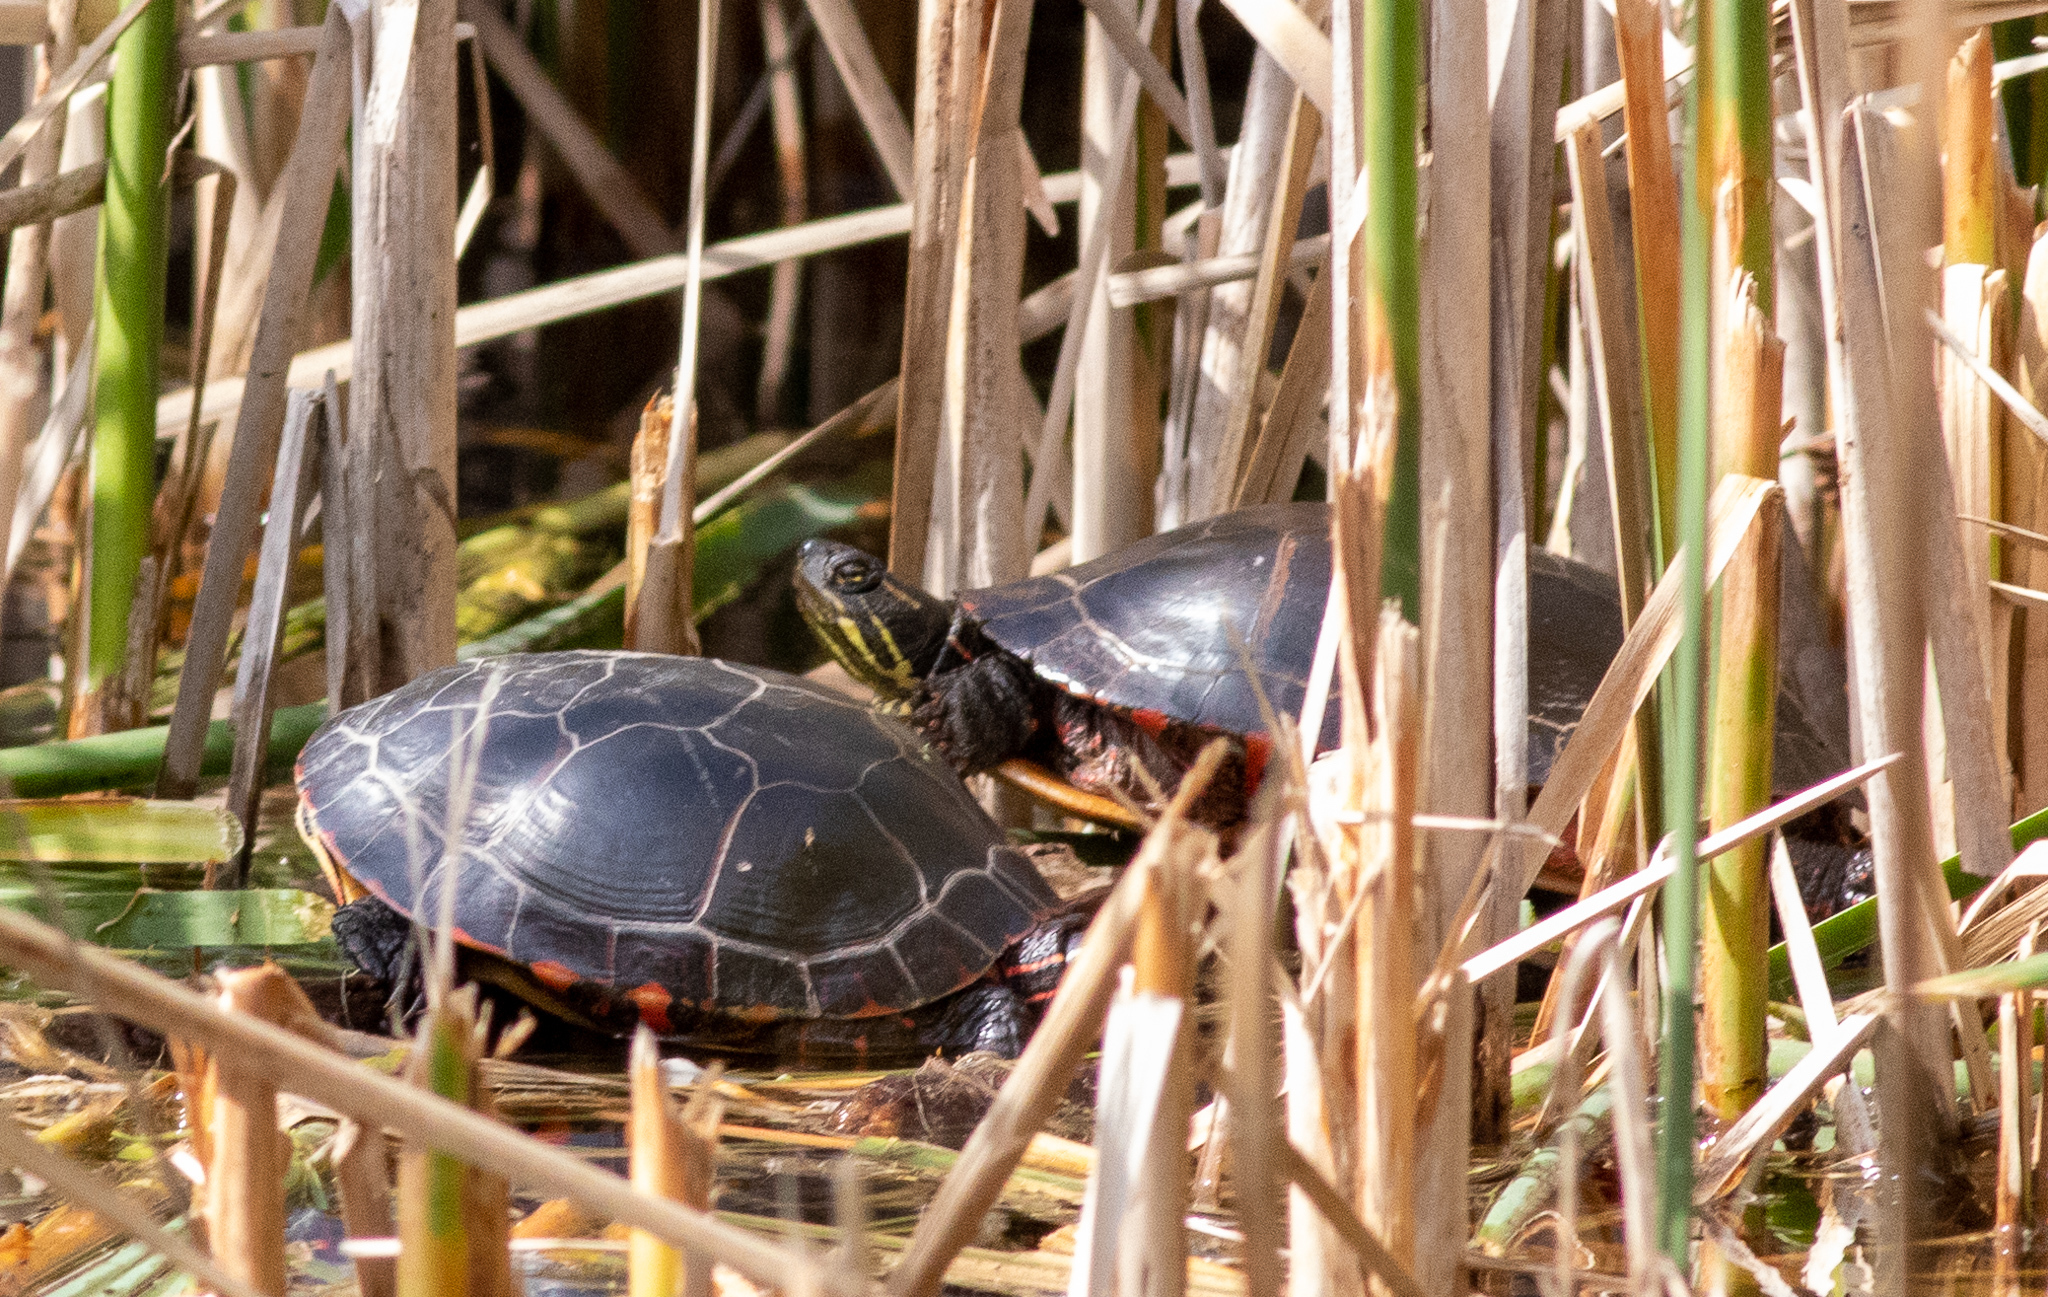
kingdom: Animalia
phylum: Chordata
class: Testudines
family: Emydidae
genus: Chrysemys
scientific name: Chrysemys picta
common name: Painted turtle
